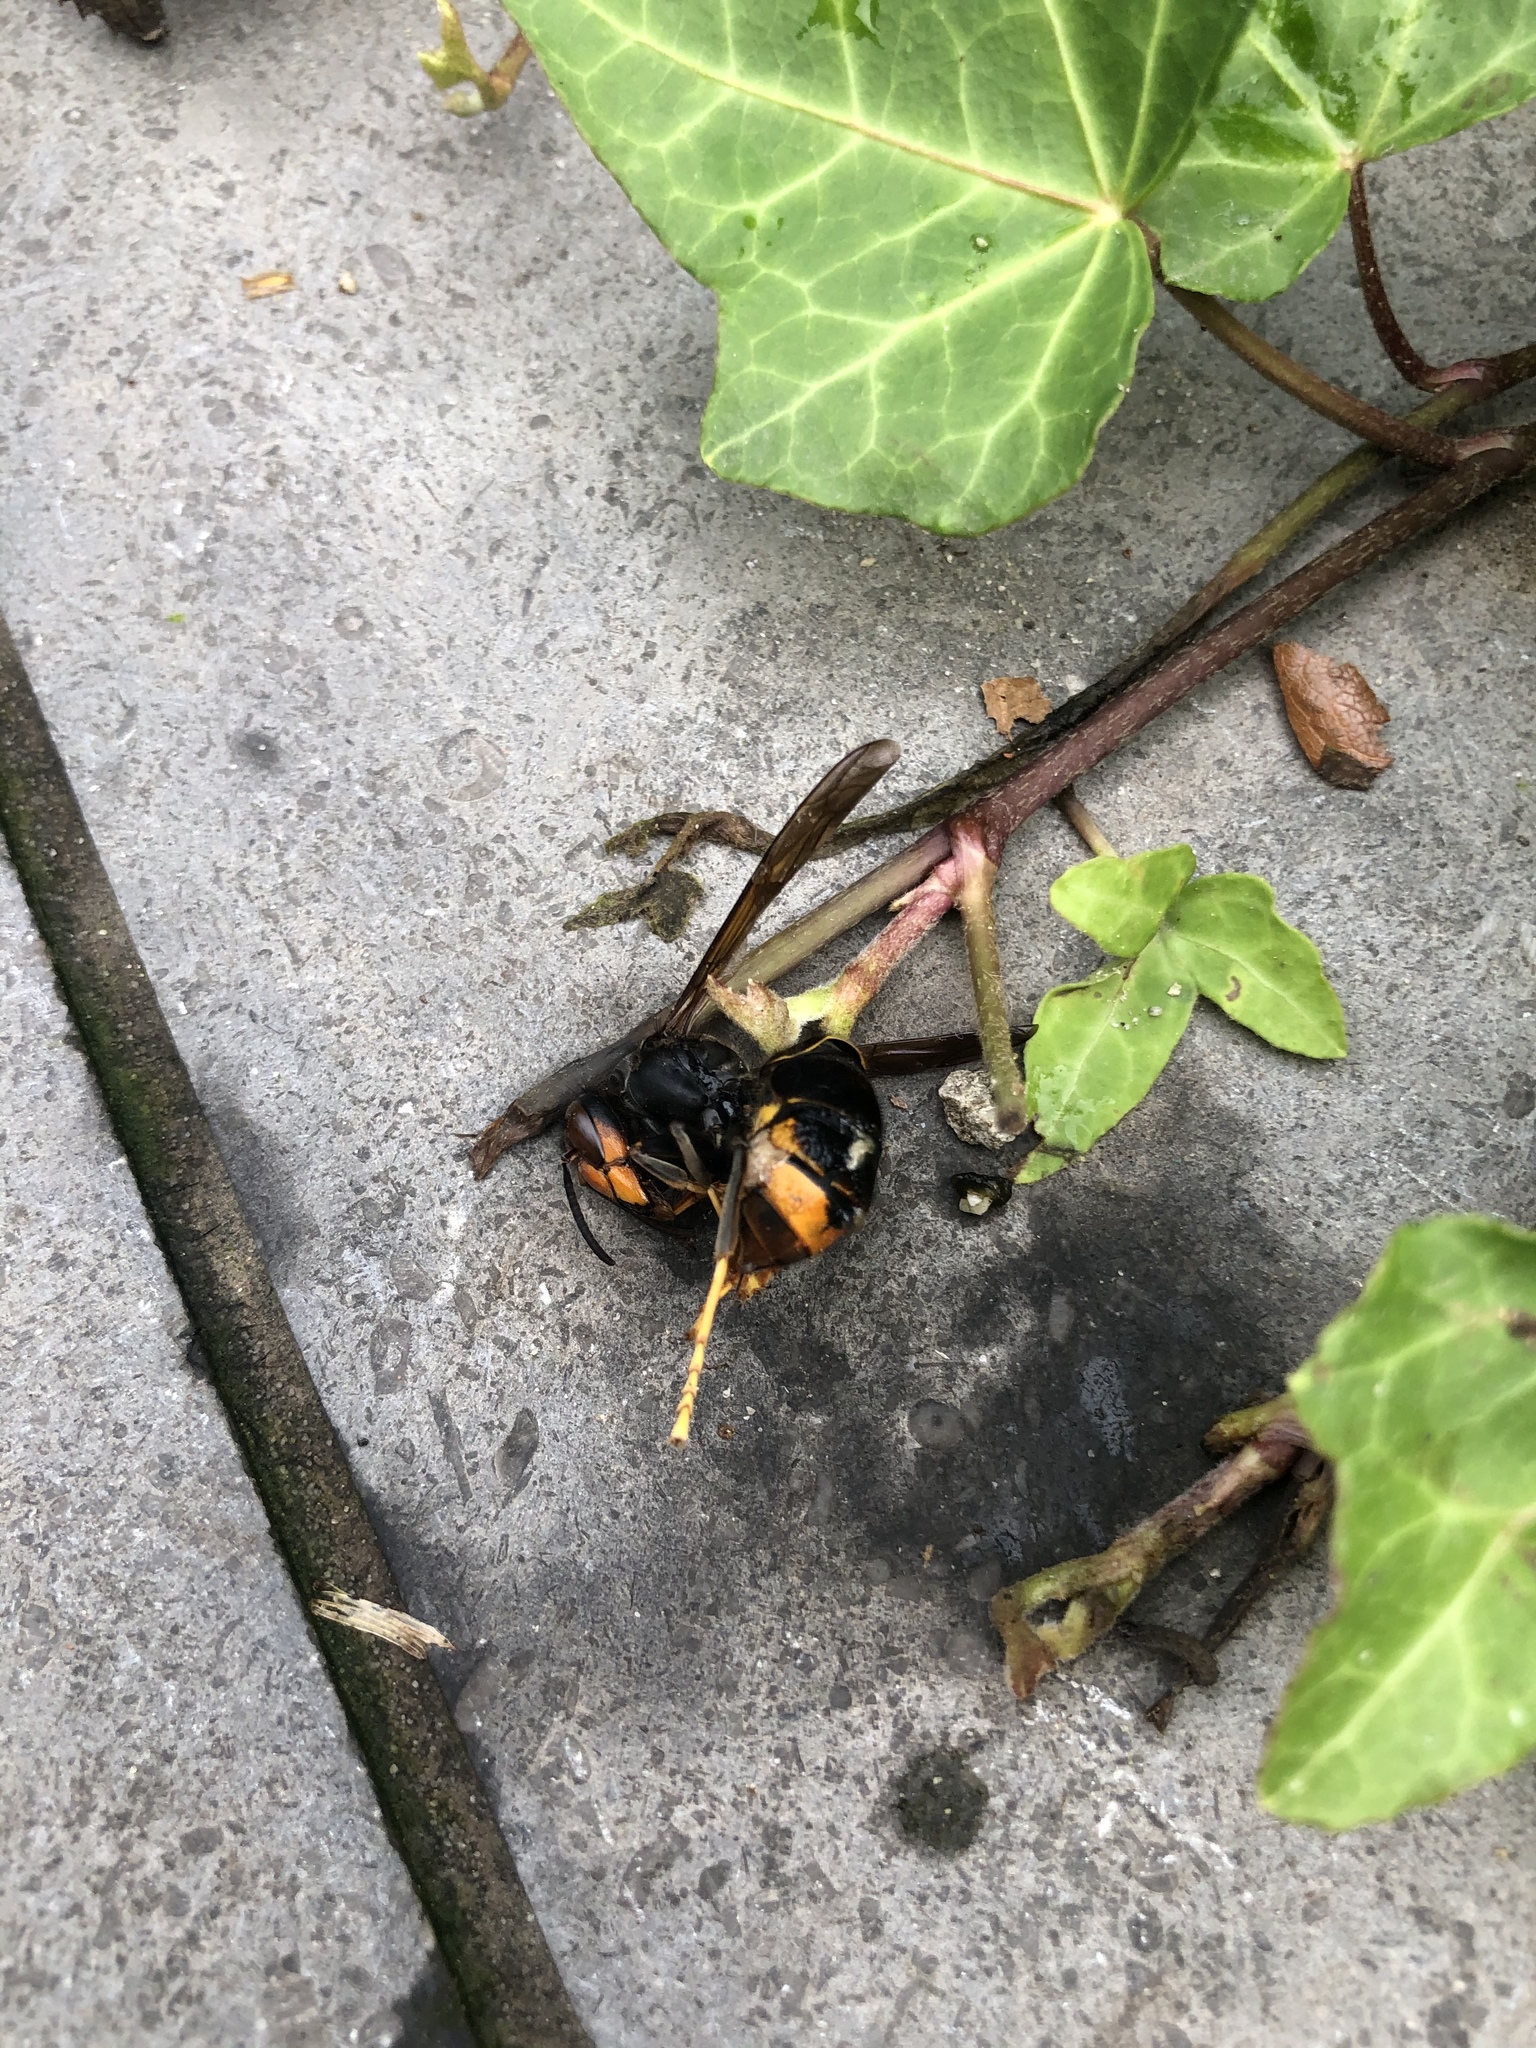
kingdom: Animalia
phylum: Arthropoda
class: Insecta
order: Hymenoptera
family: Vespidae
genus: Vespa
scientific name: Vespa velutina
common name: Asian hornet
